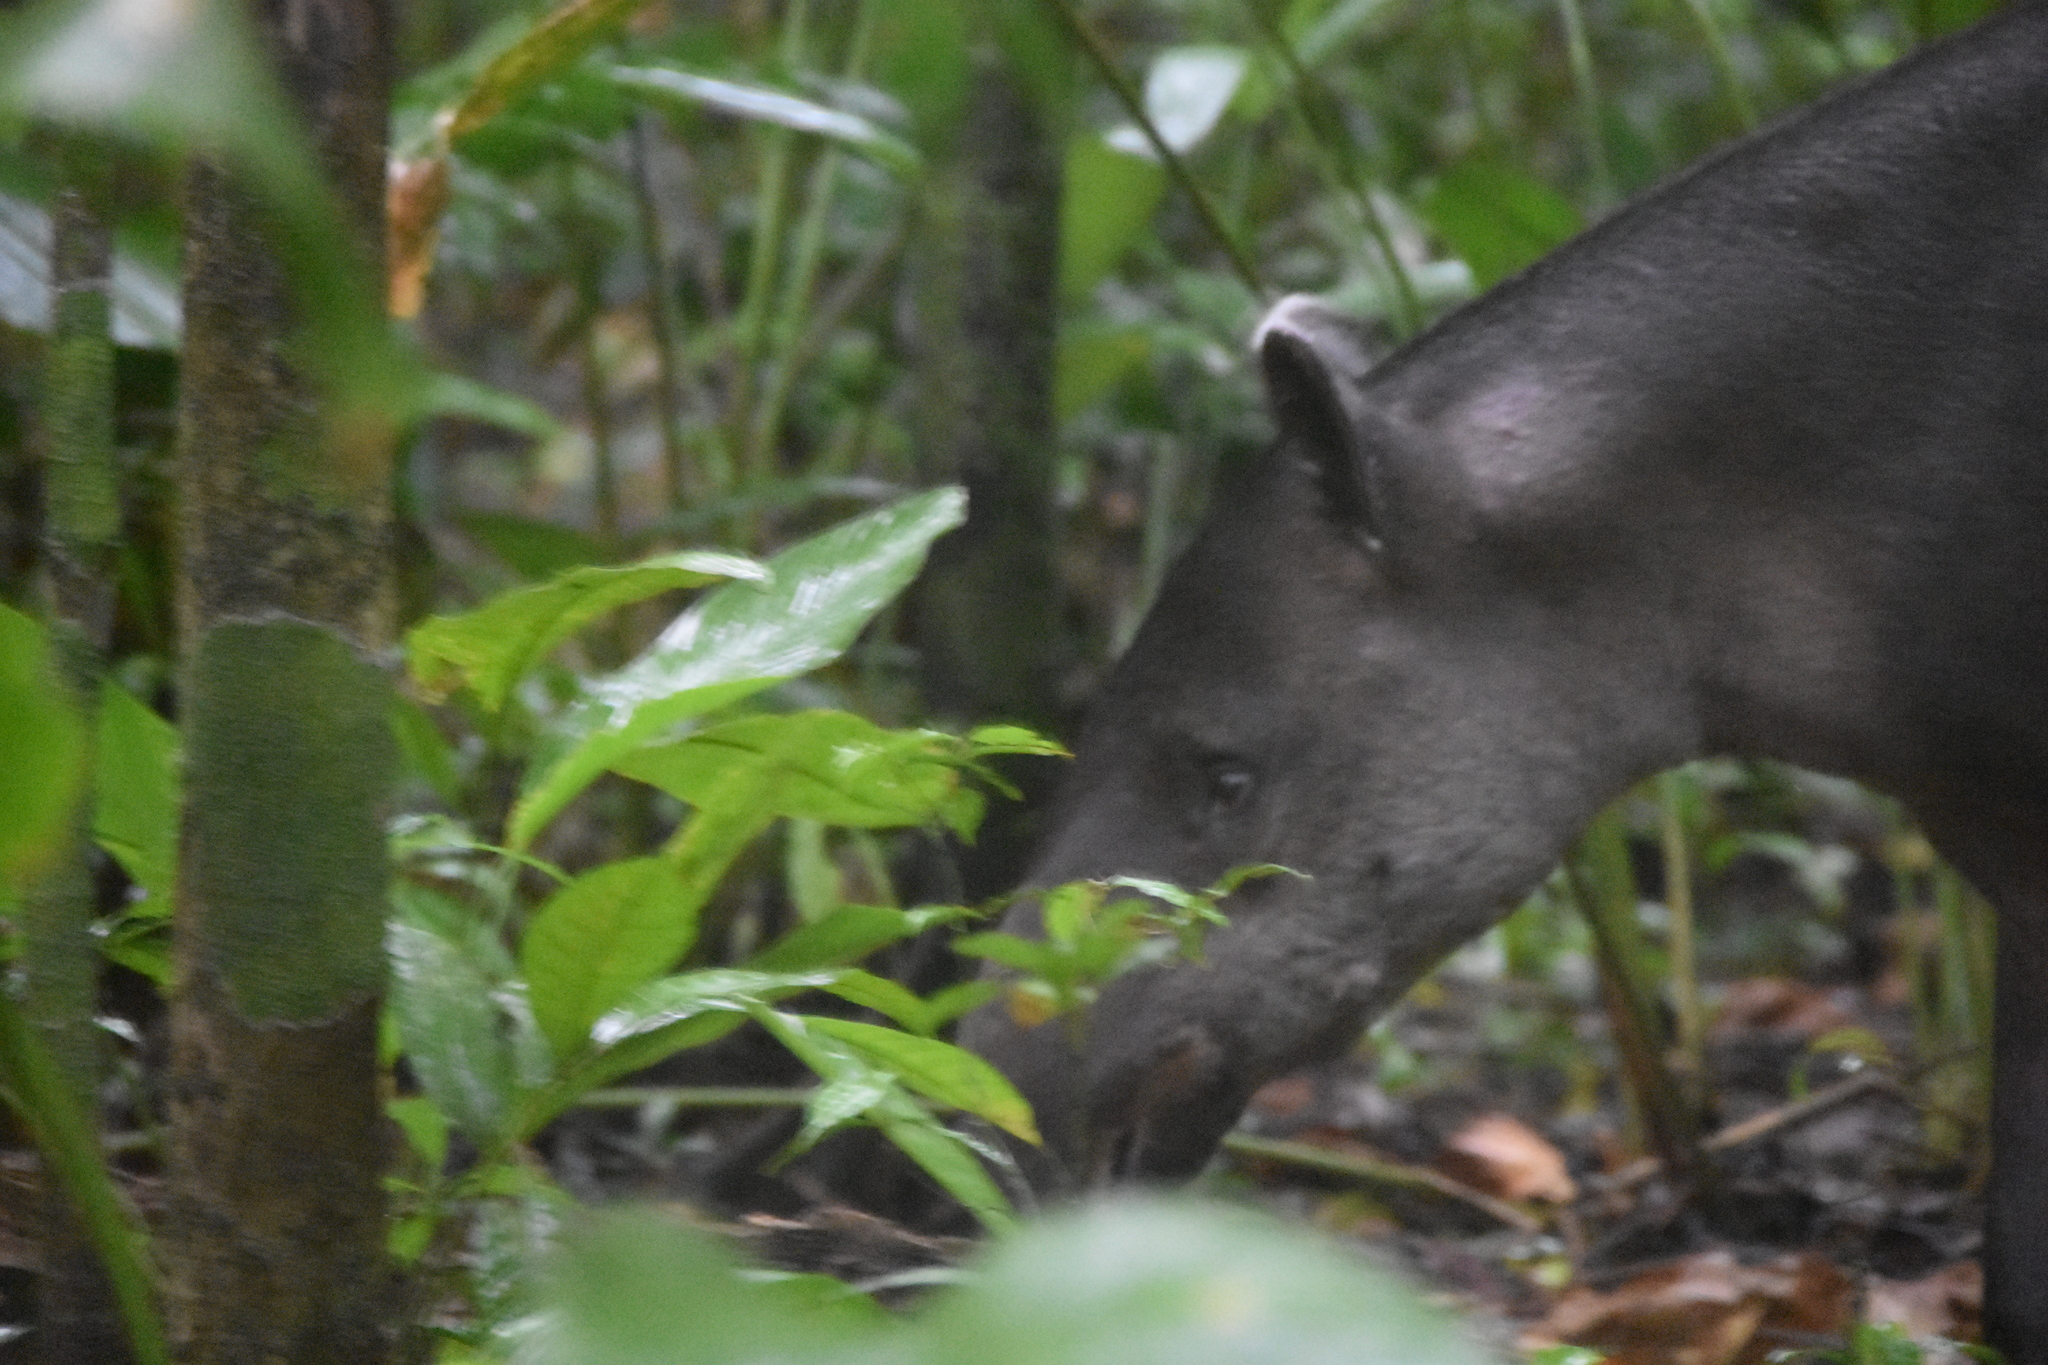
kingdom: Animalia
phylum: Chordata
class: Mammalia
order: Perissodactyla
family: Tapiridae
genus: Tapirella
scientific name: Tapirella bairdii
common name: Baird's tapir
